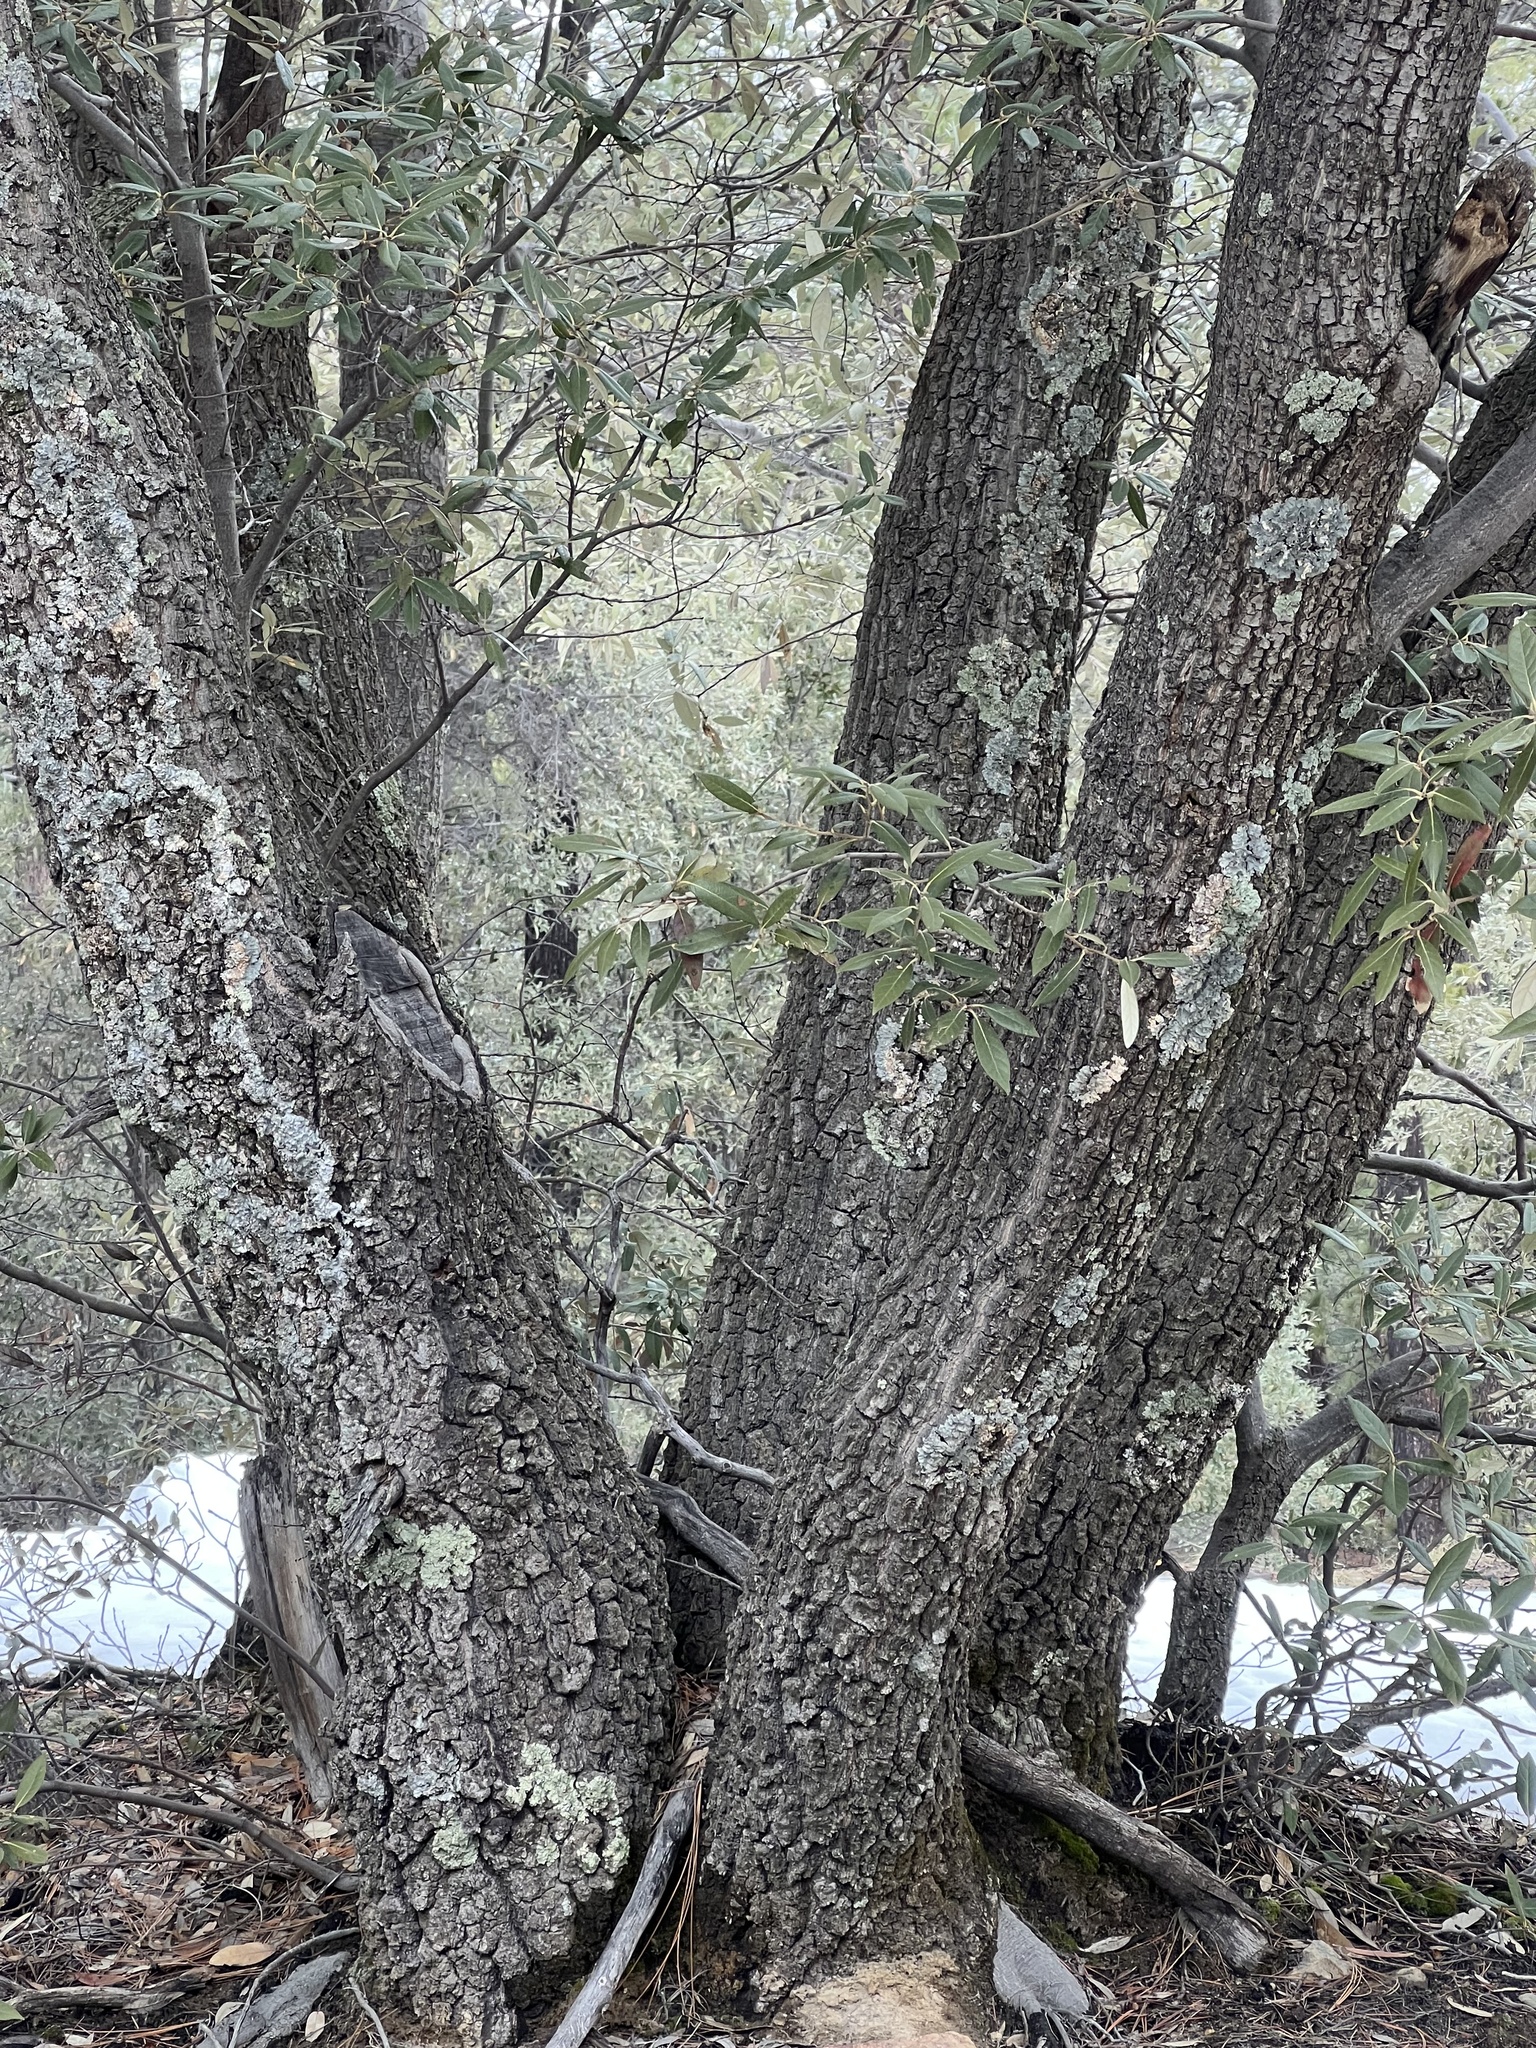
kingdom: Plantae
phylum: Tracheophyta
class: Magnoliopsida
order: Fagales
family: Fagaceae
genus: Quercus
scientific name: Quercus hypoleucoides
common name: Silverleaf oak
